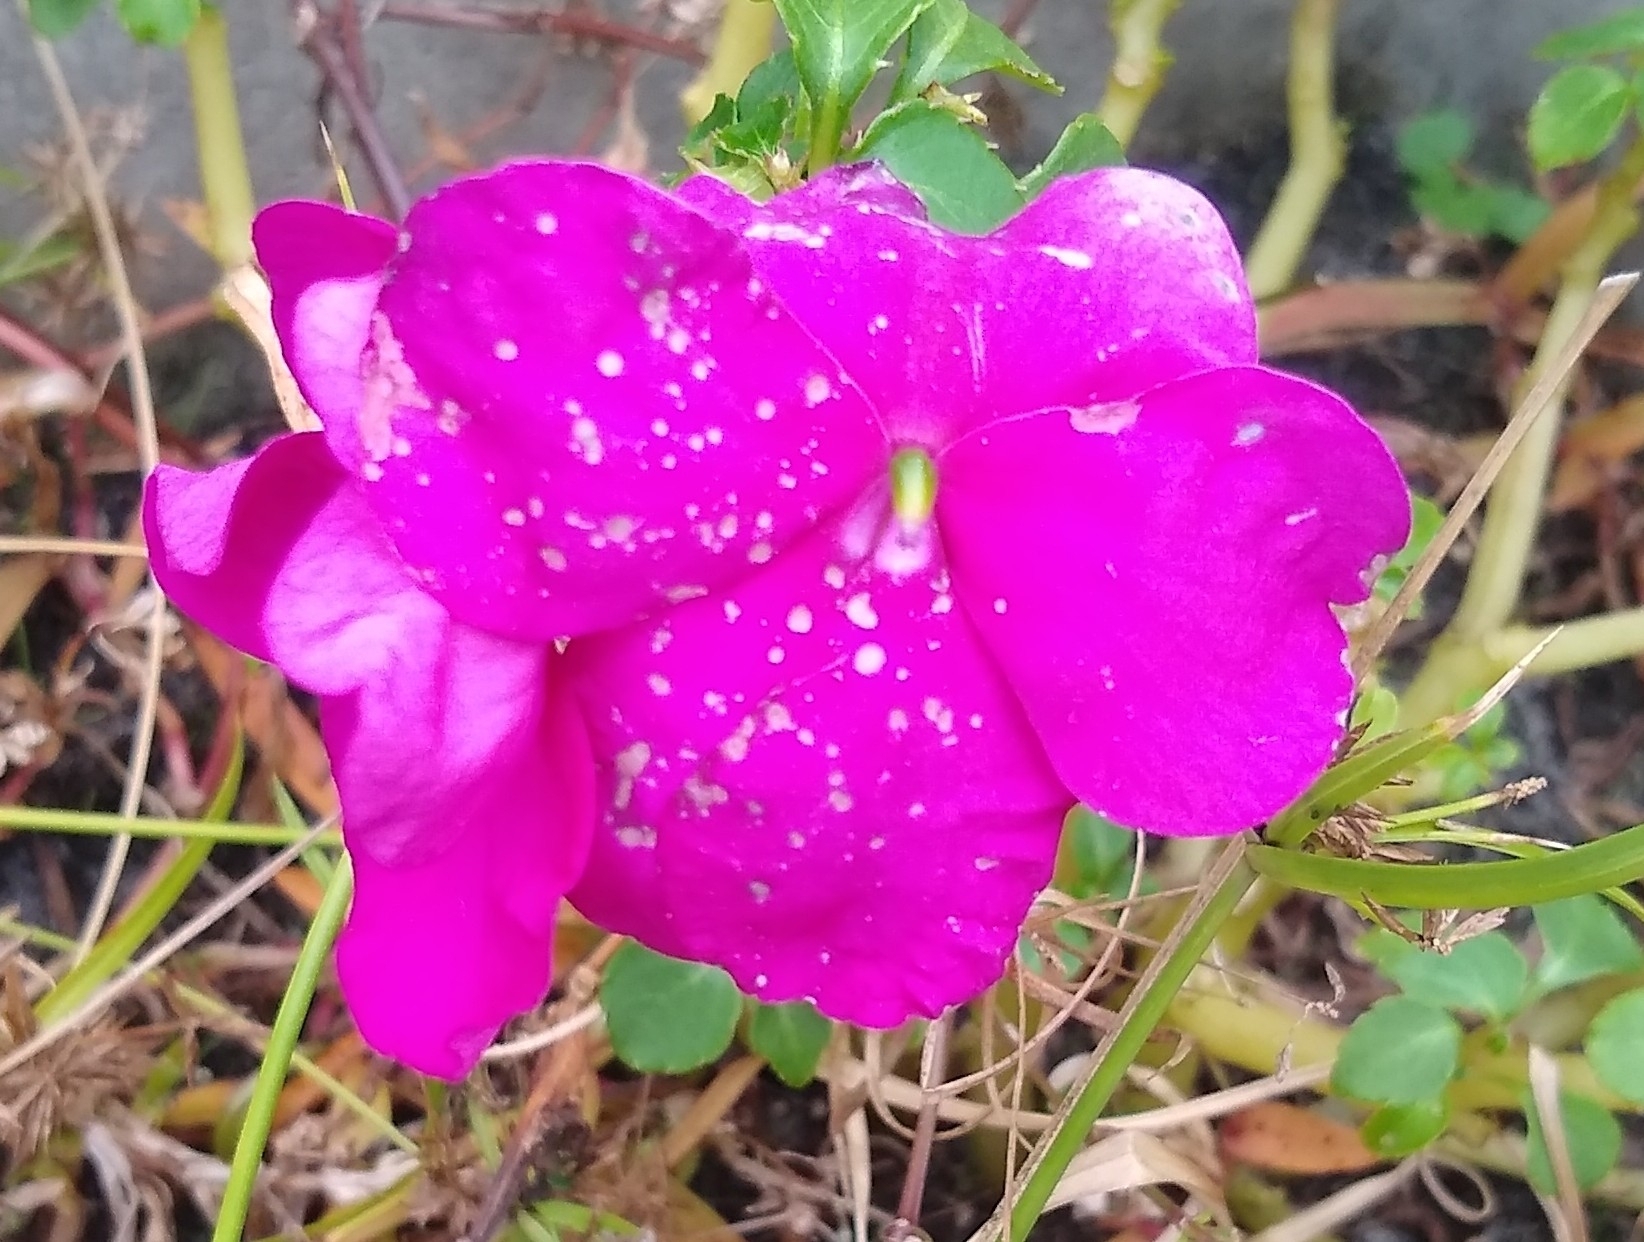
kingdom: Plantae
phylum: Tracheophyta
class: Magnoliopsida
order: Ericales
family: Balsaminaceae
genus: Impatiens
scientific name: Impatiens walleriana
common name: Buzzy lizzy
